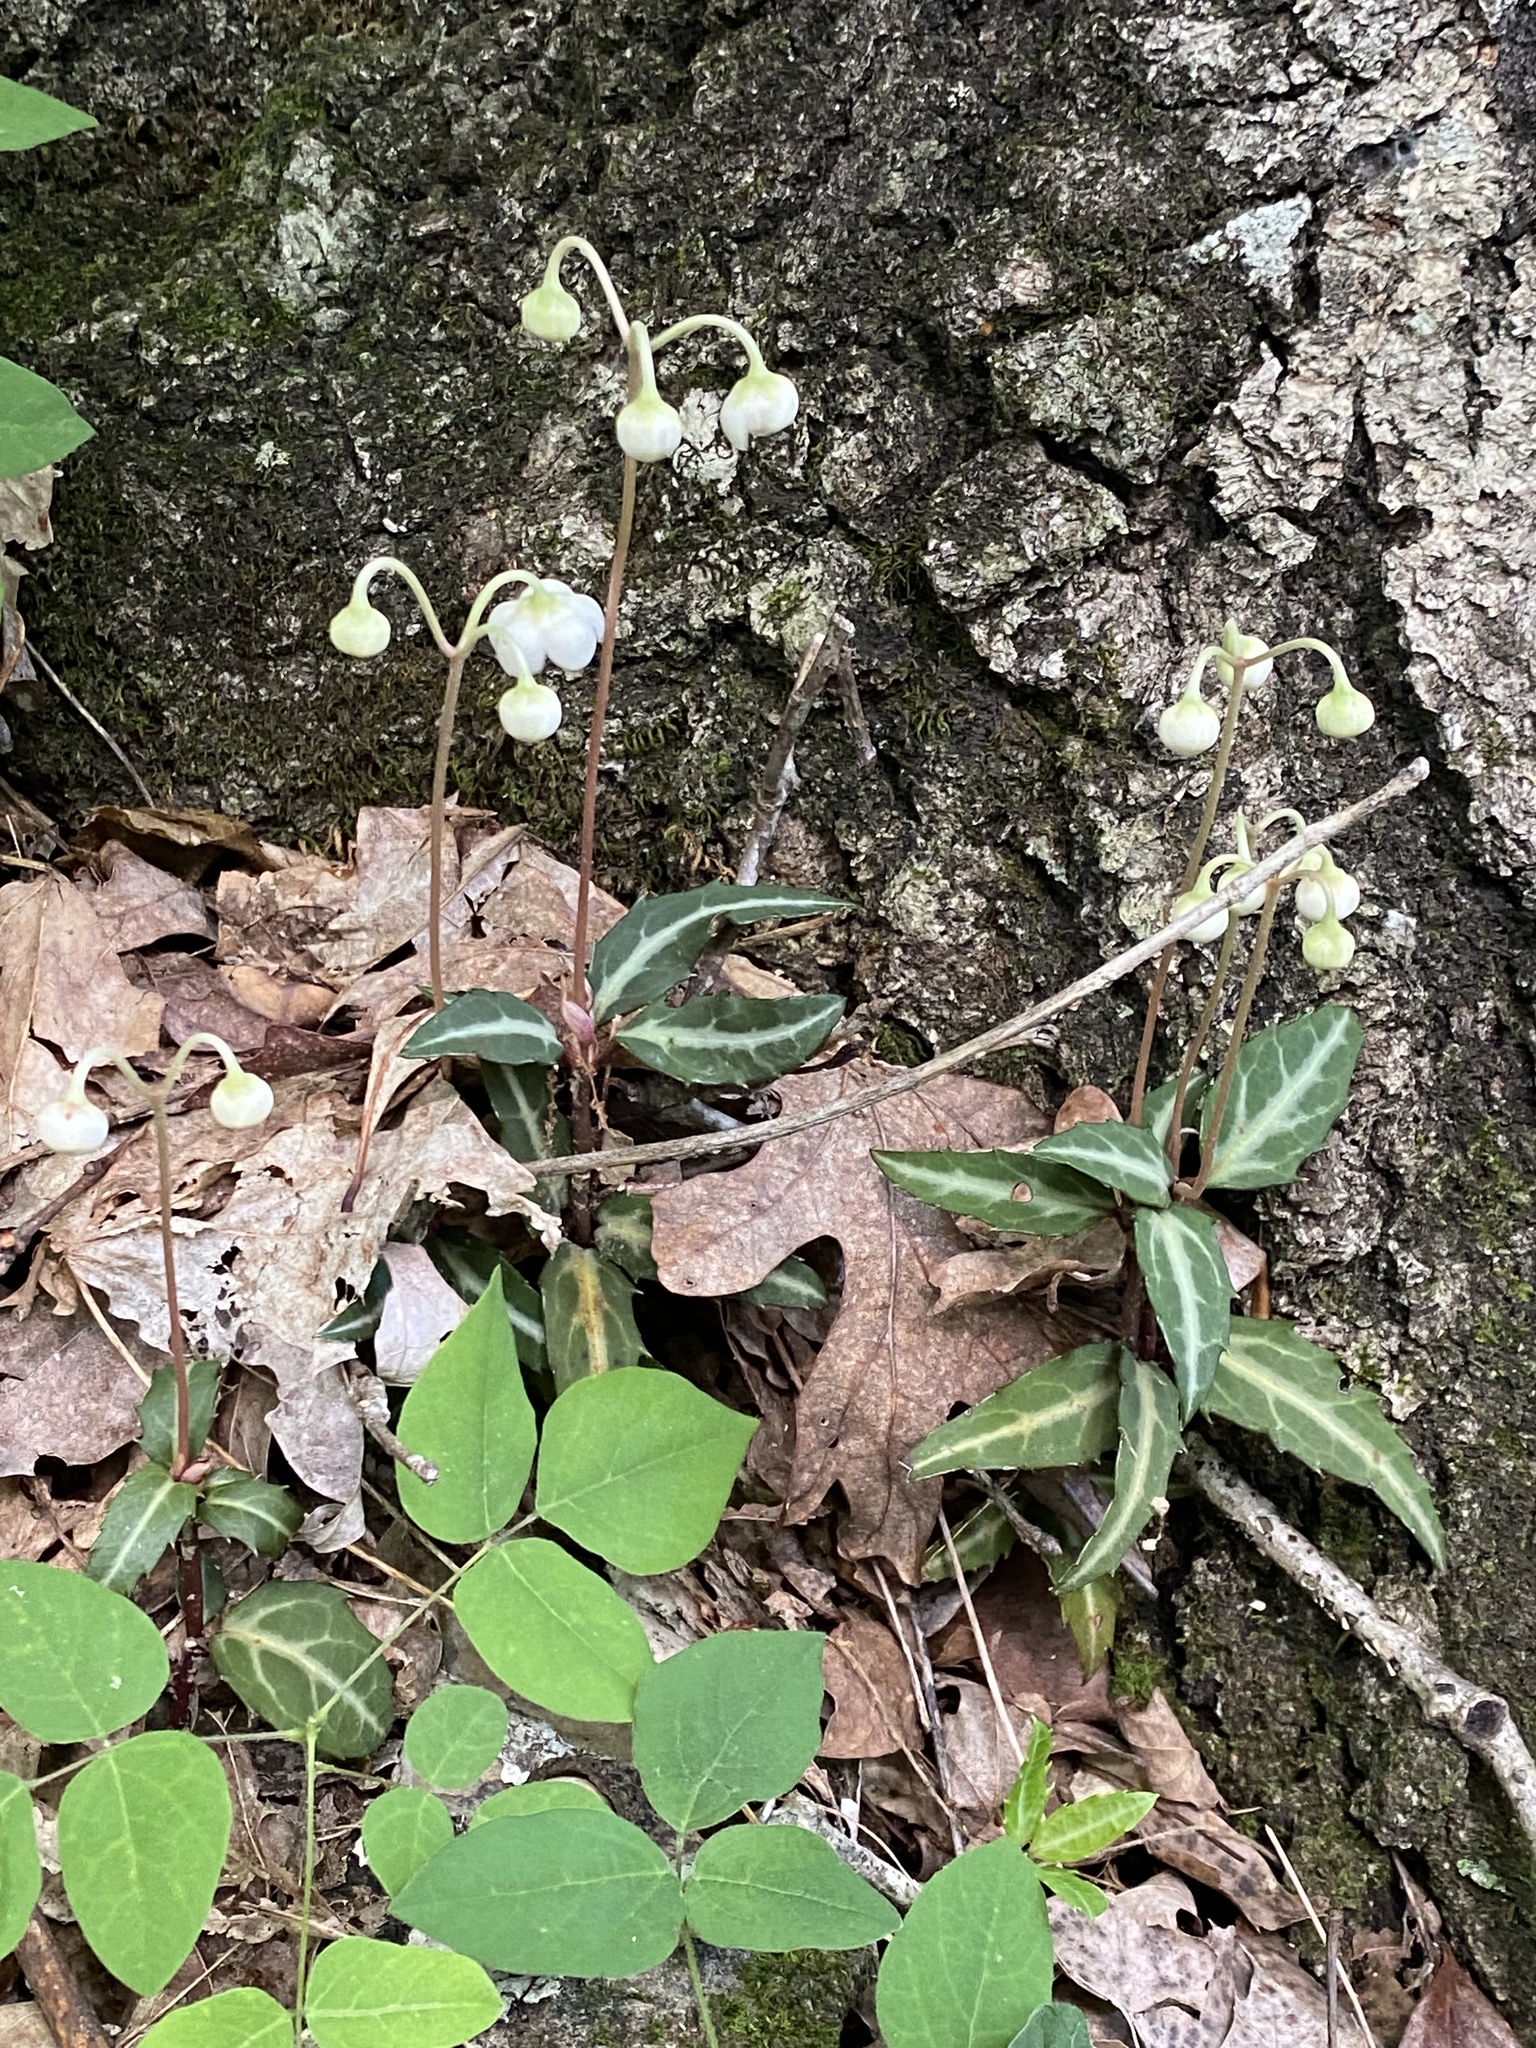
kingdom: Plantae
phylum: Tracheophyta
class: Magnoliopsida
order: Ericales
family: Ericaceae
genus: Chimaphila
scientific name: Chimaphila maculata
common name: Spotted pipsissewa
